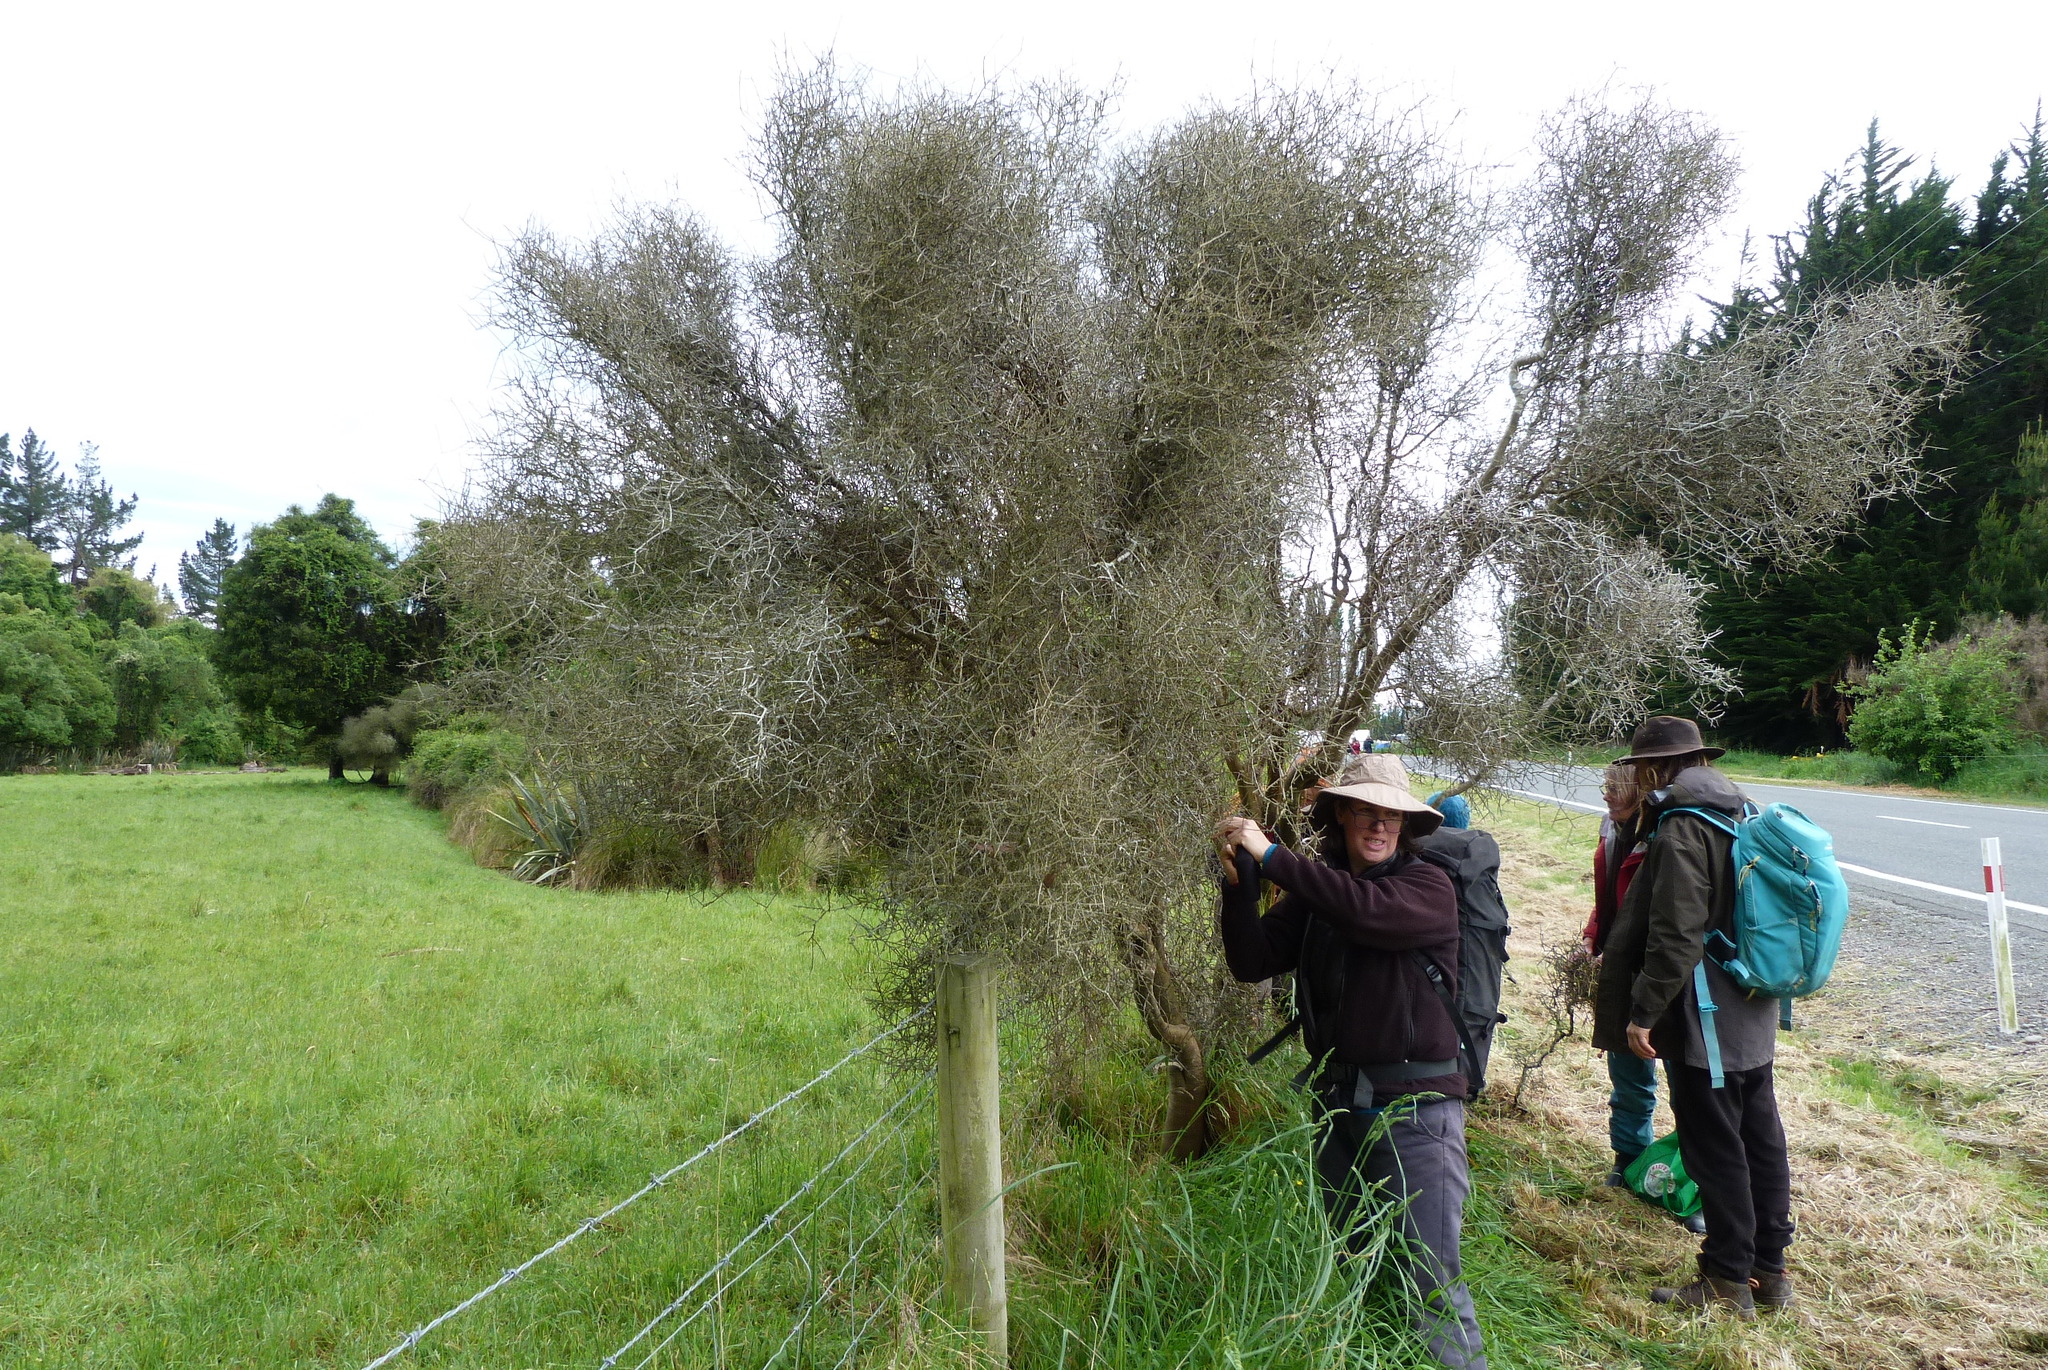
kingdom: Plantae
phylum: Tracheophyta
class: Magnoliopsida
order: Malpighiales
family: Violaceae
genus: Melicytus
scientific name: Melicytus flexuosus
